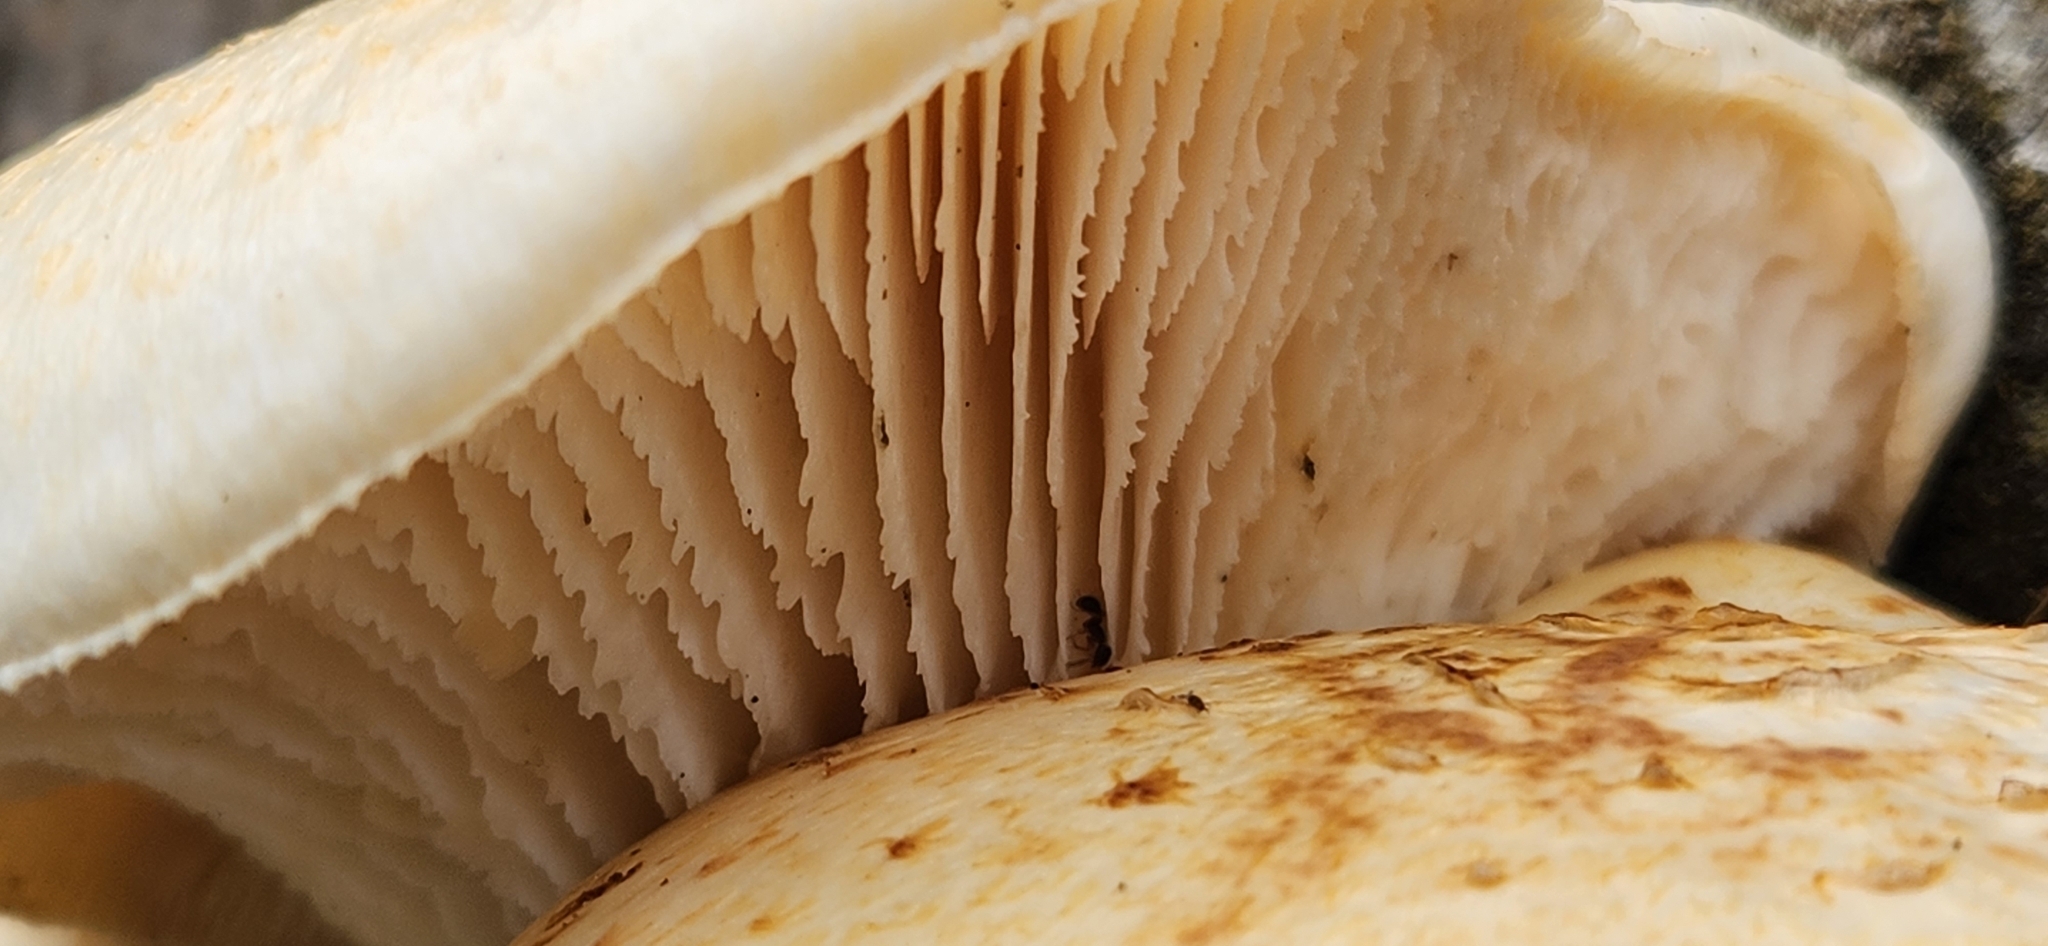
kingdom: Fungi
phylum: Basidiomycota
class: Agaricomycetes
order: Gloeophyllales
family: Gloeophyllaceae
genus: Neolentinus
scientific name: Neolentinus lepideus
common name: Scaly sawgill
